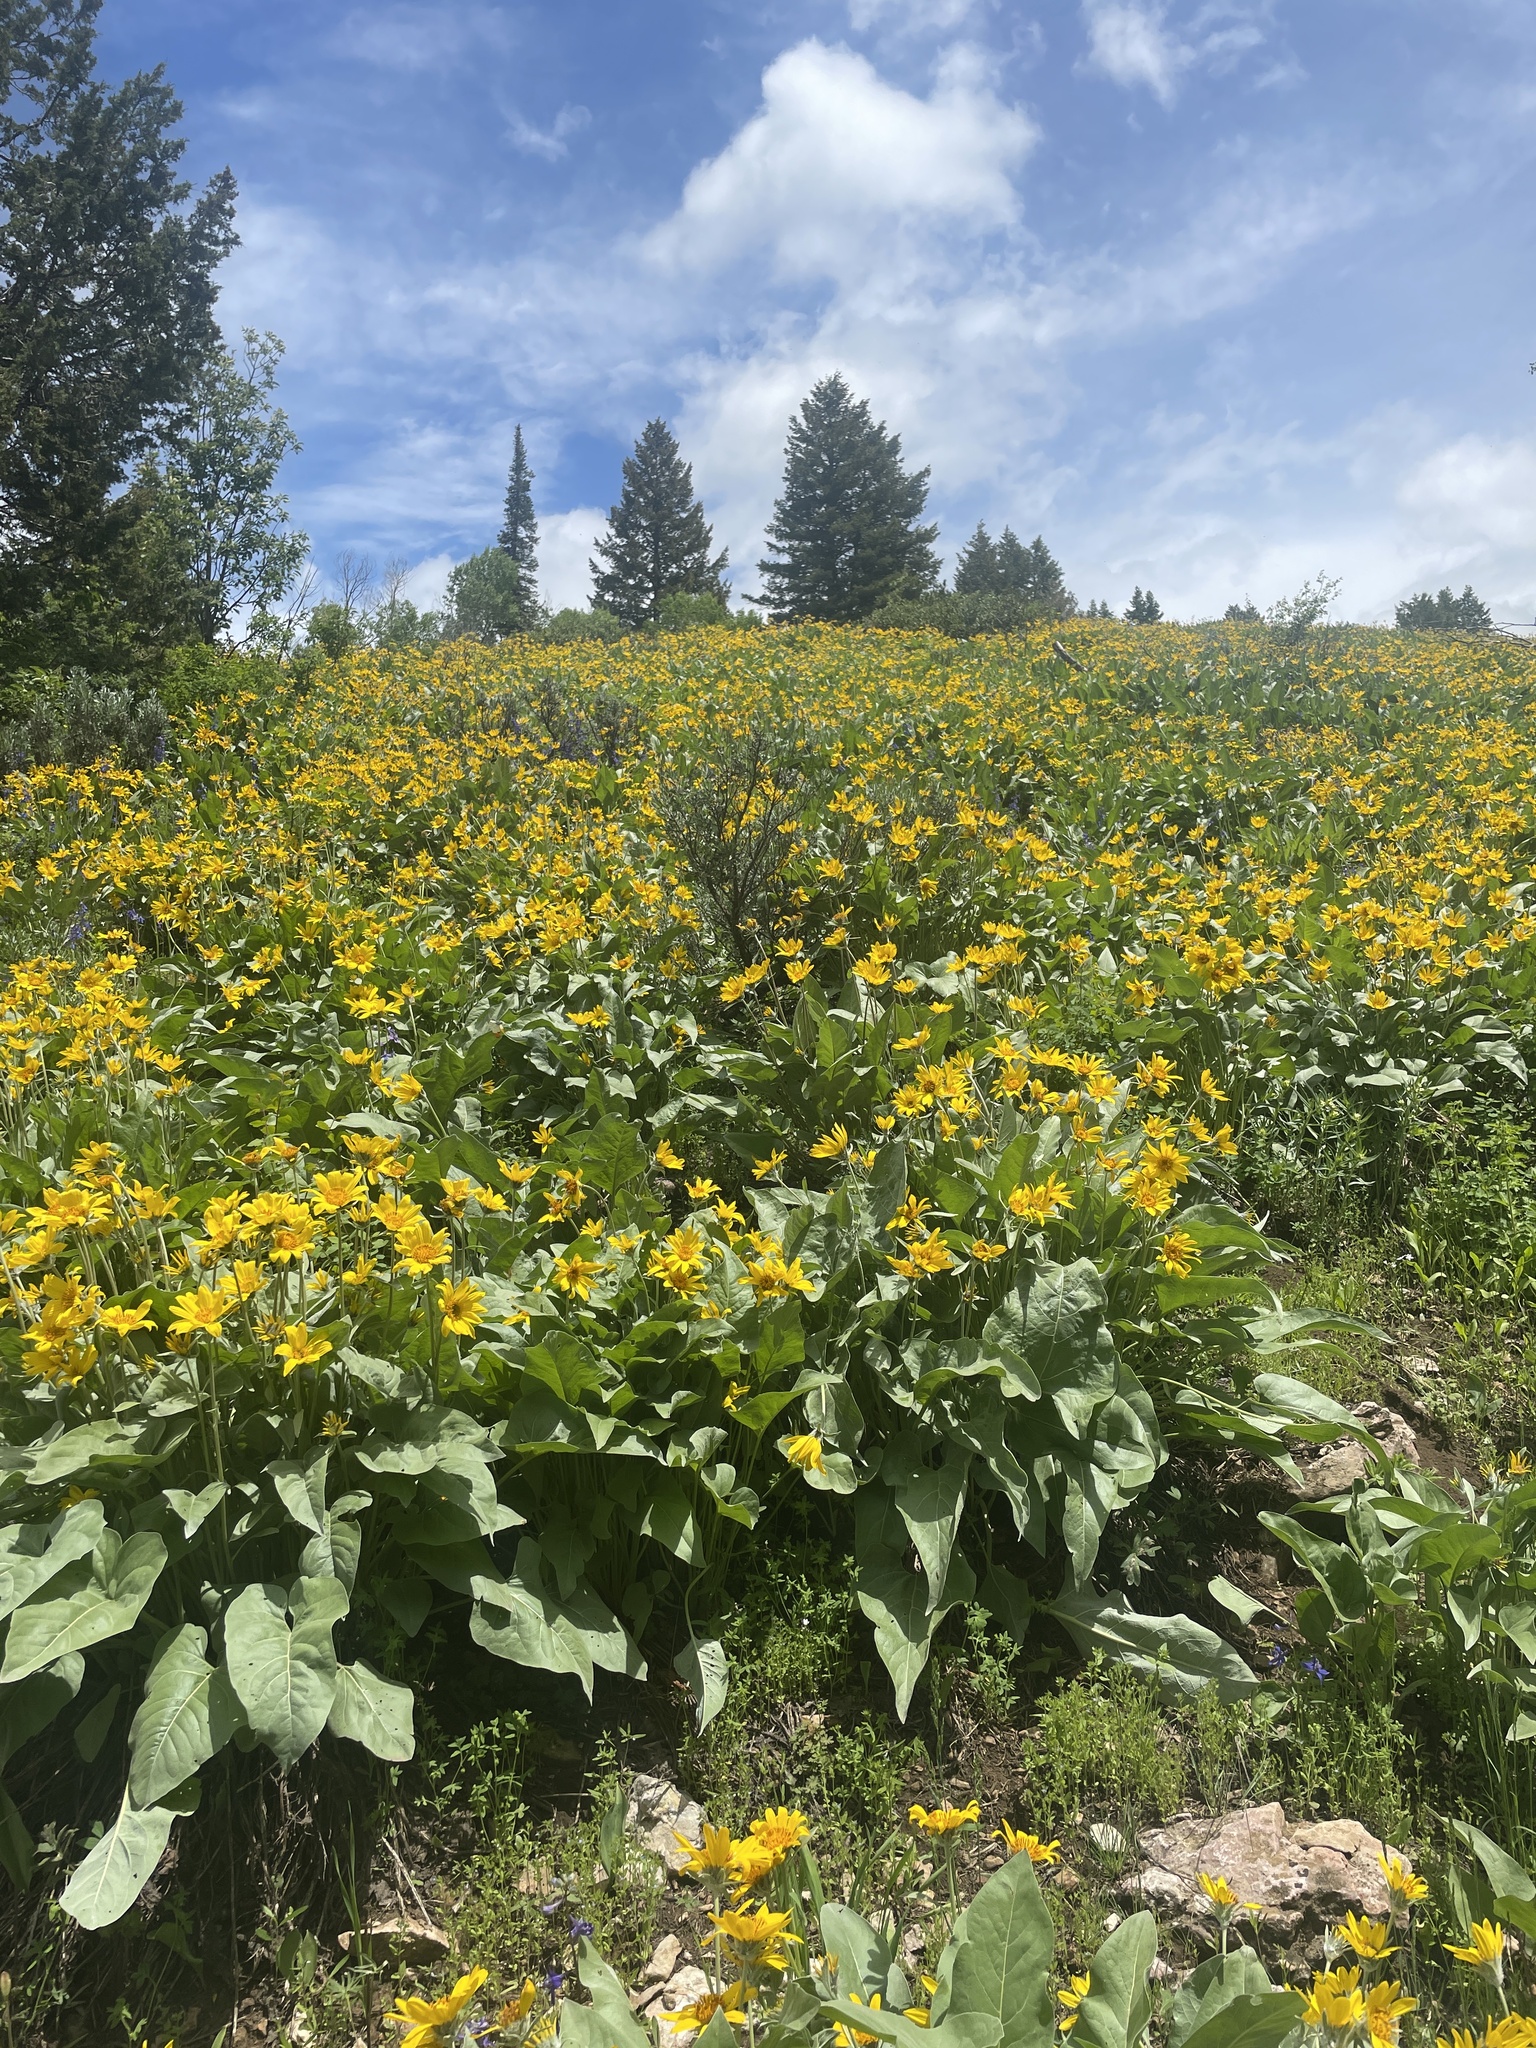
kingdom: Plantae
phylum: Tracheophyta
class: Magnoliopsida
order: Asterales
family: Asteraceae
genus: Wyethia
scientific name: Wyethia sagittata
